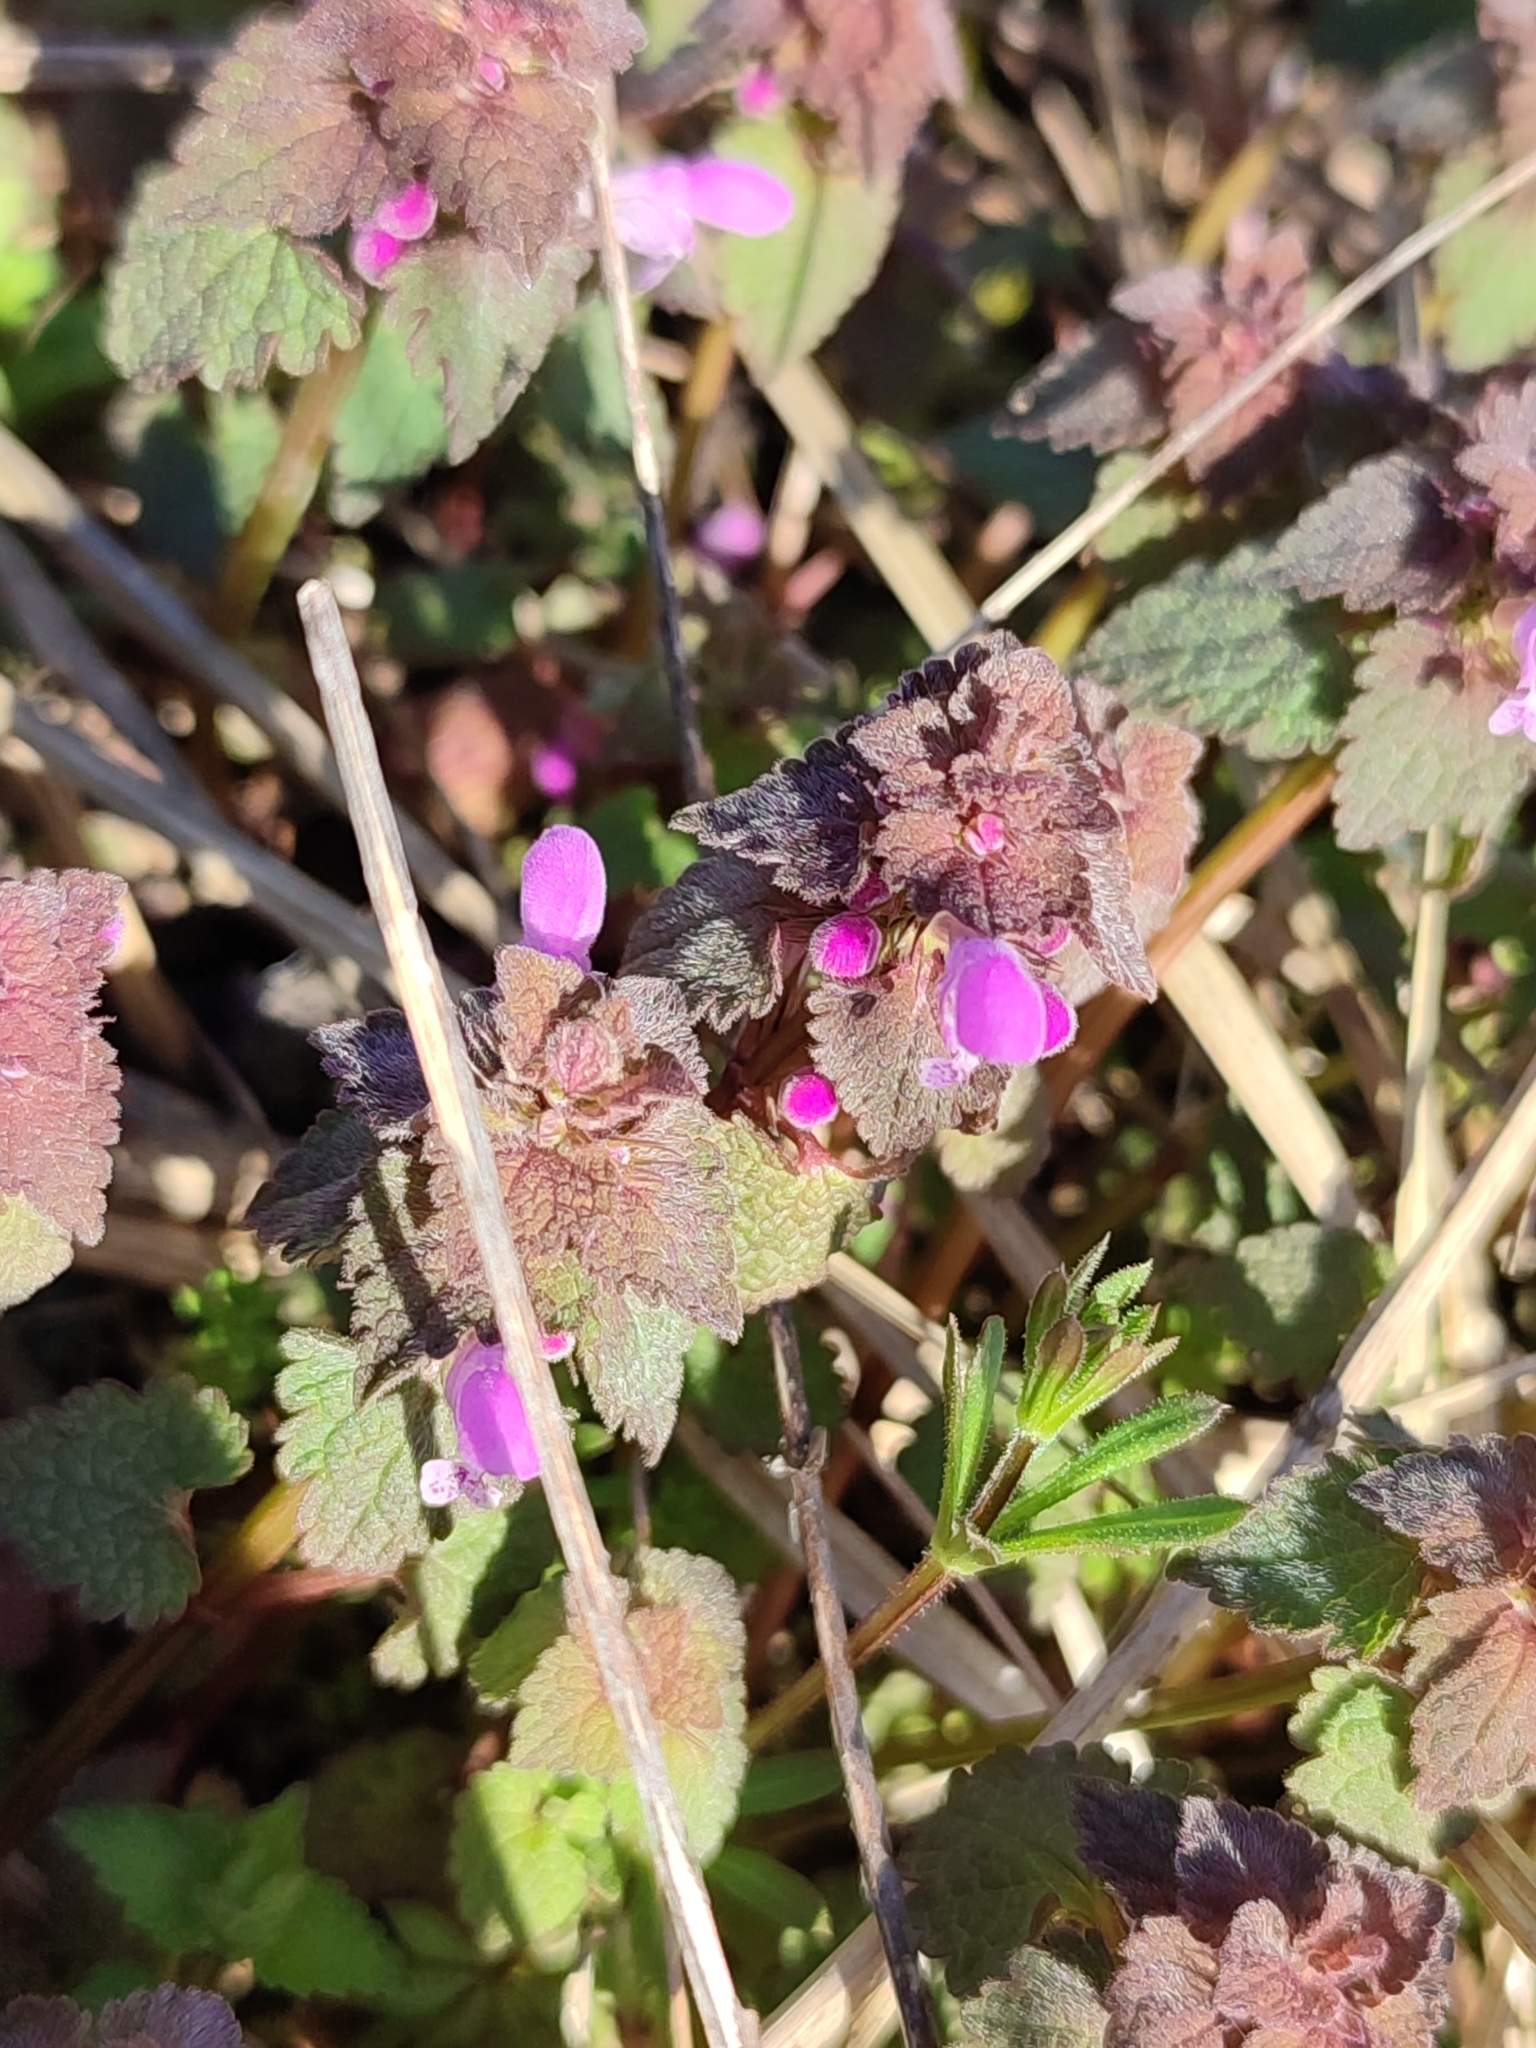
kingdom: Plantae
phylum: Tracheophyta
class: Magnoliopsida
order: Lamiales
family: Lamiaceae
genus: Lamium
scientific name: Lamium purpureum
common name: Red dead-nettle
